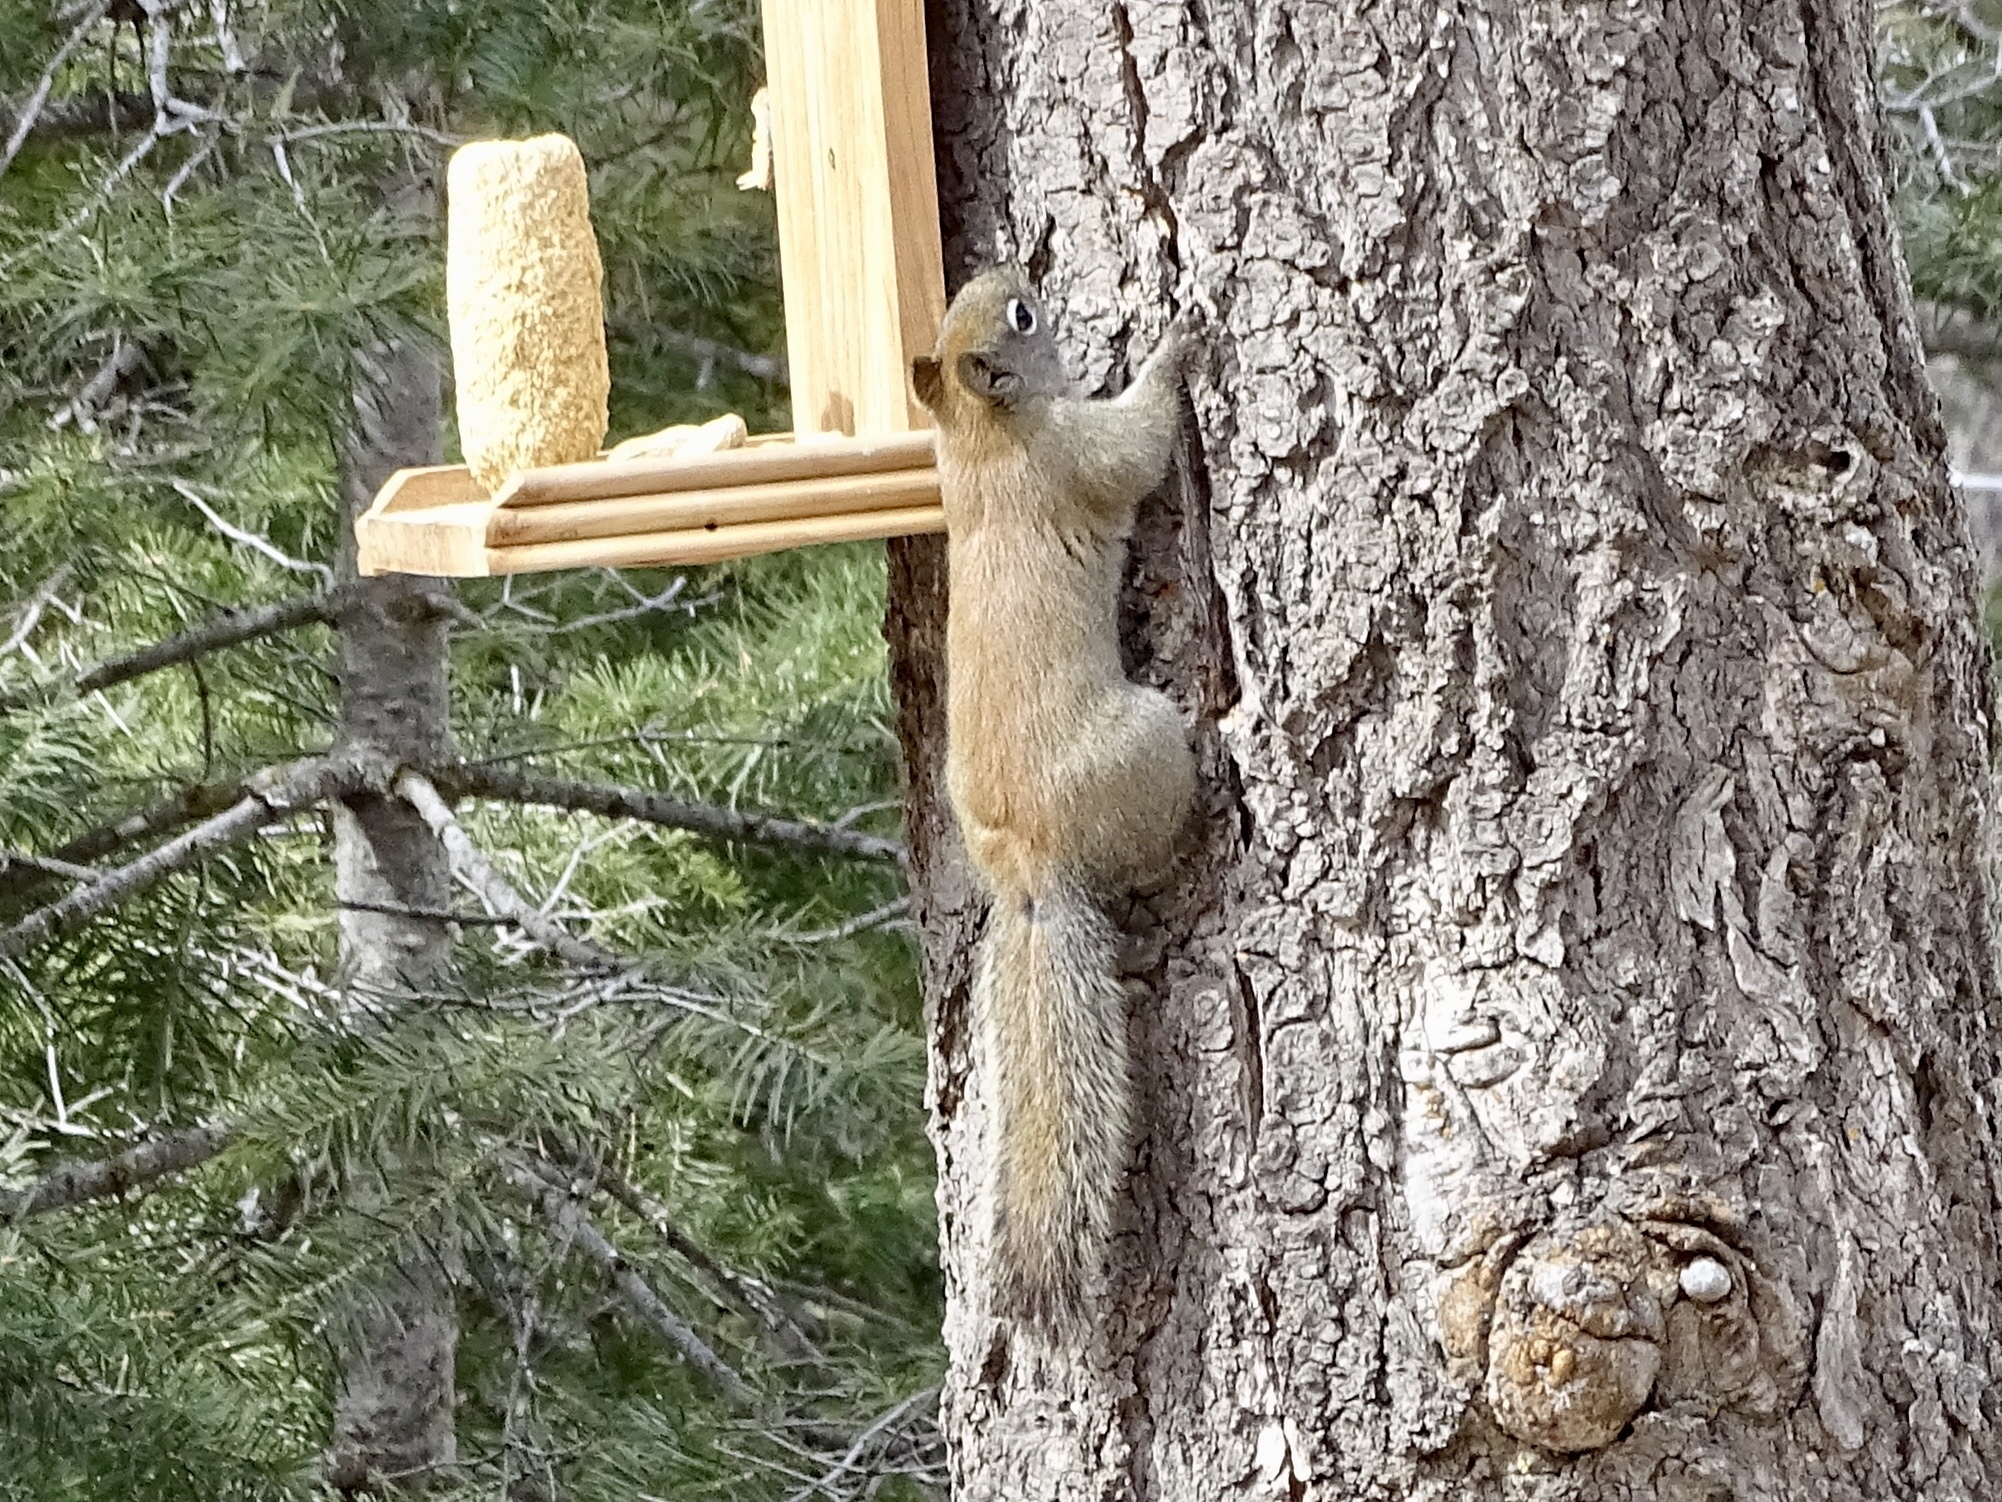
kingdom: Animalia
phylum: Chordata
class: Mammalia
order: Rodentia
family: Sciuridae
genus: Tamiasciurus
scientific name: Tamiasciurus hudsonicus
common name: Red squirrel
